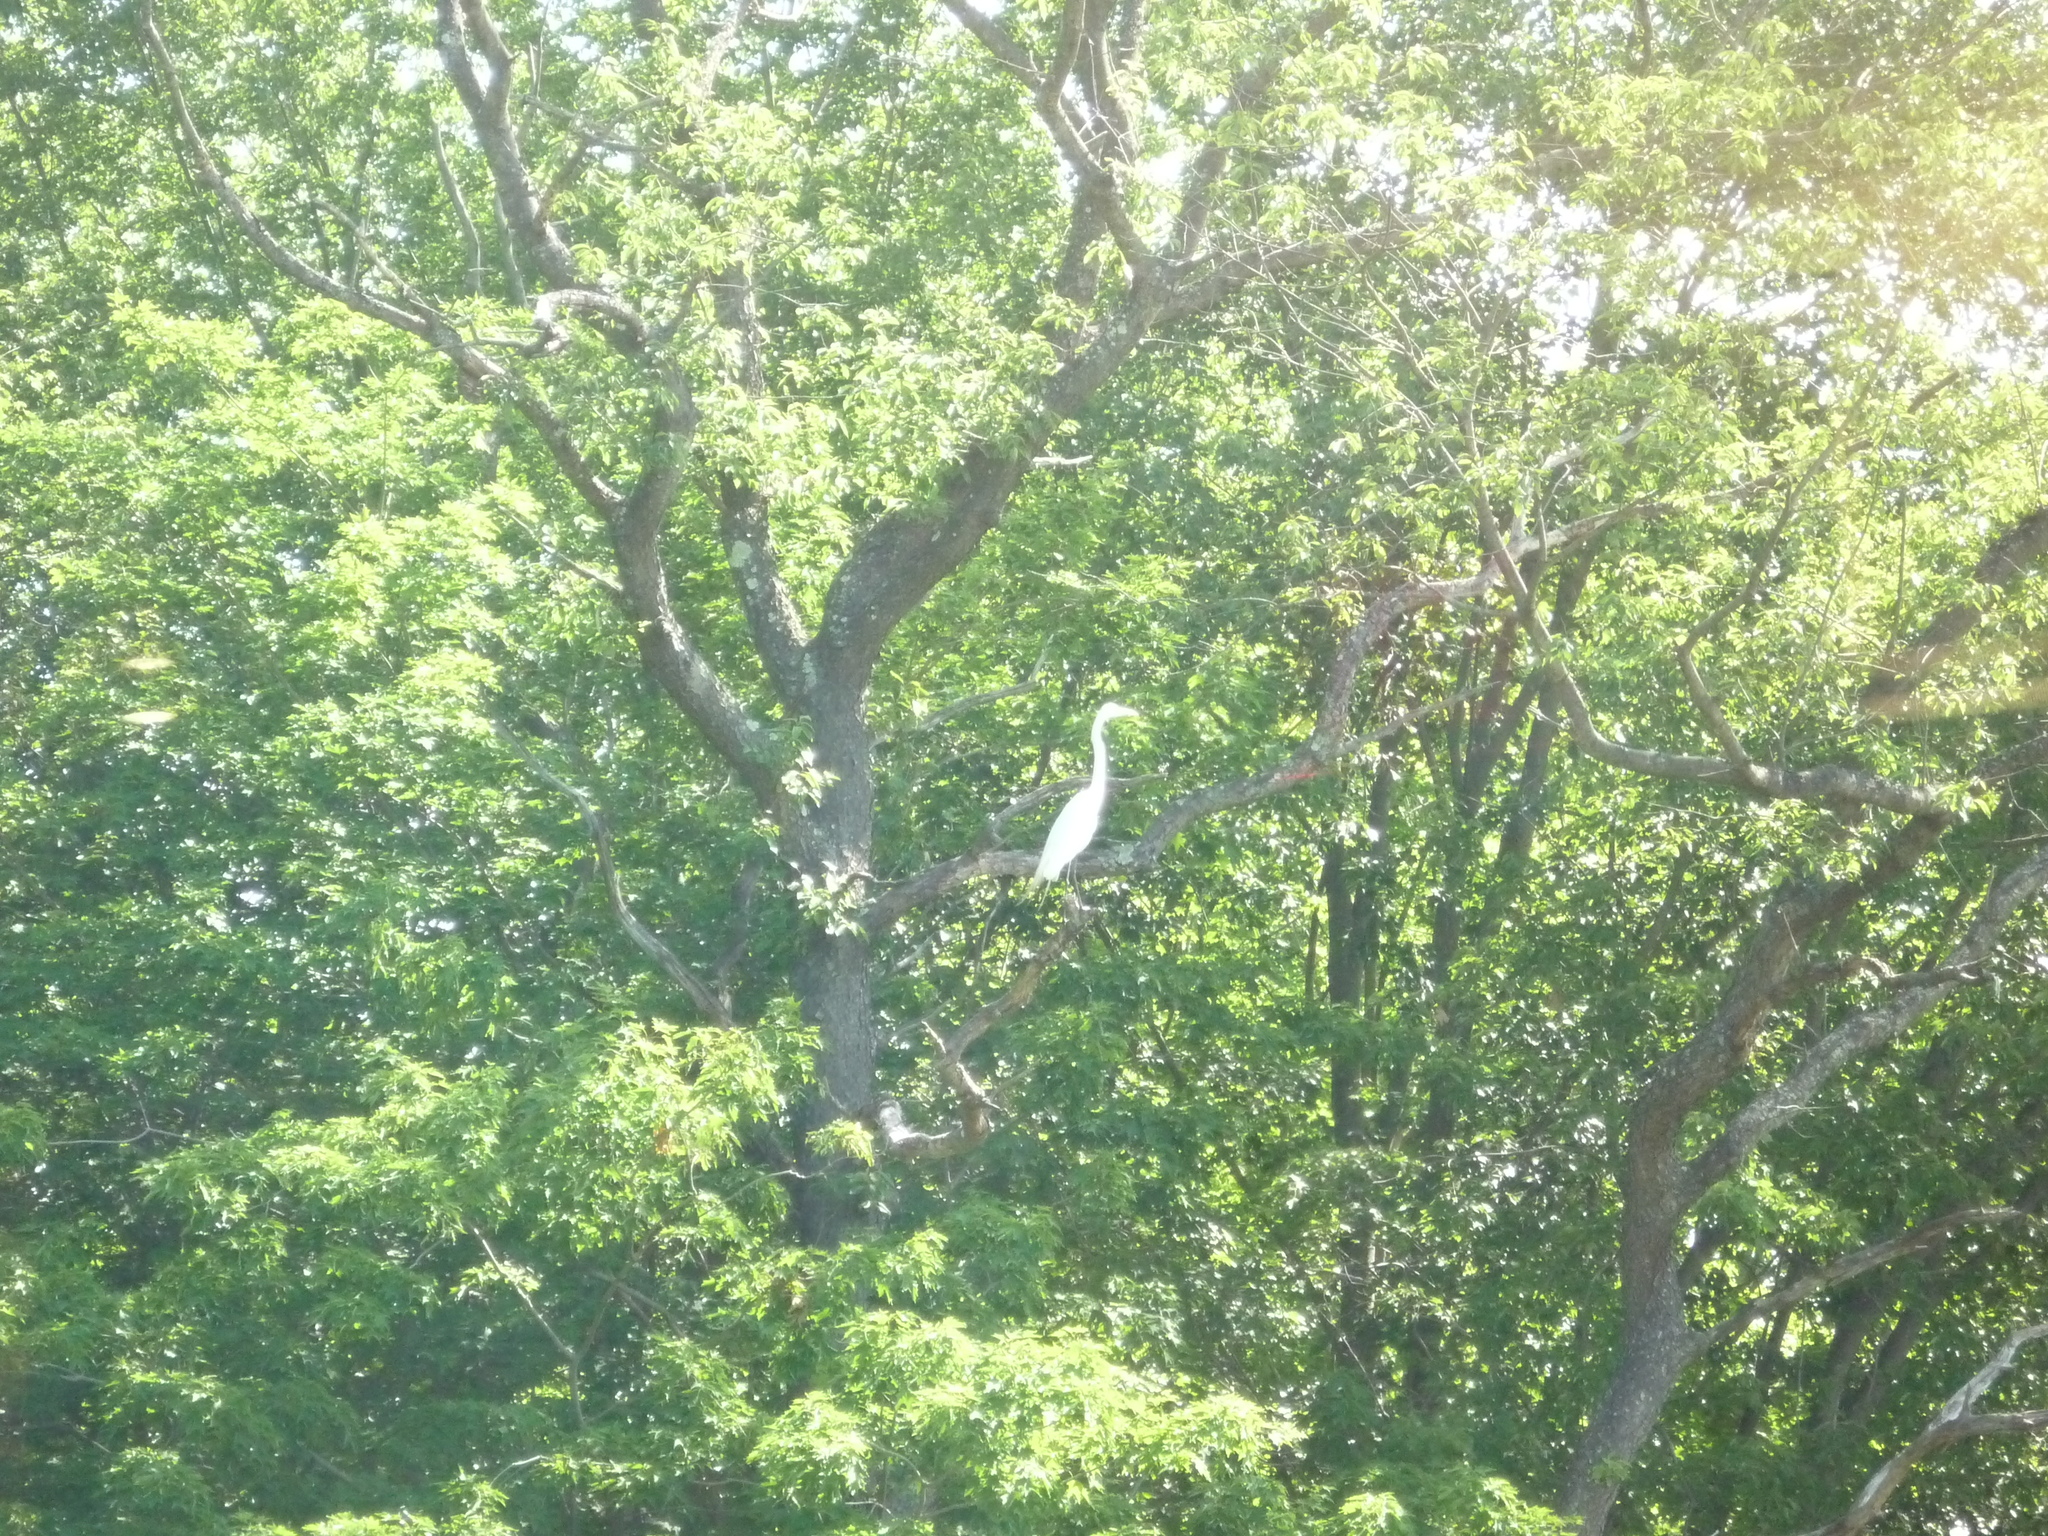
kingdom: Animalia
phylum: Chordata
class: Aves
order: Pelecaniformes
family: Ardeidae
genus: Ardea
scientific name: Ardea alba
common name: Great egret
